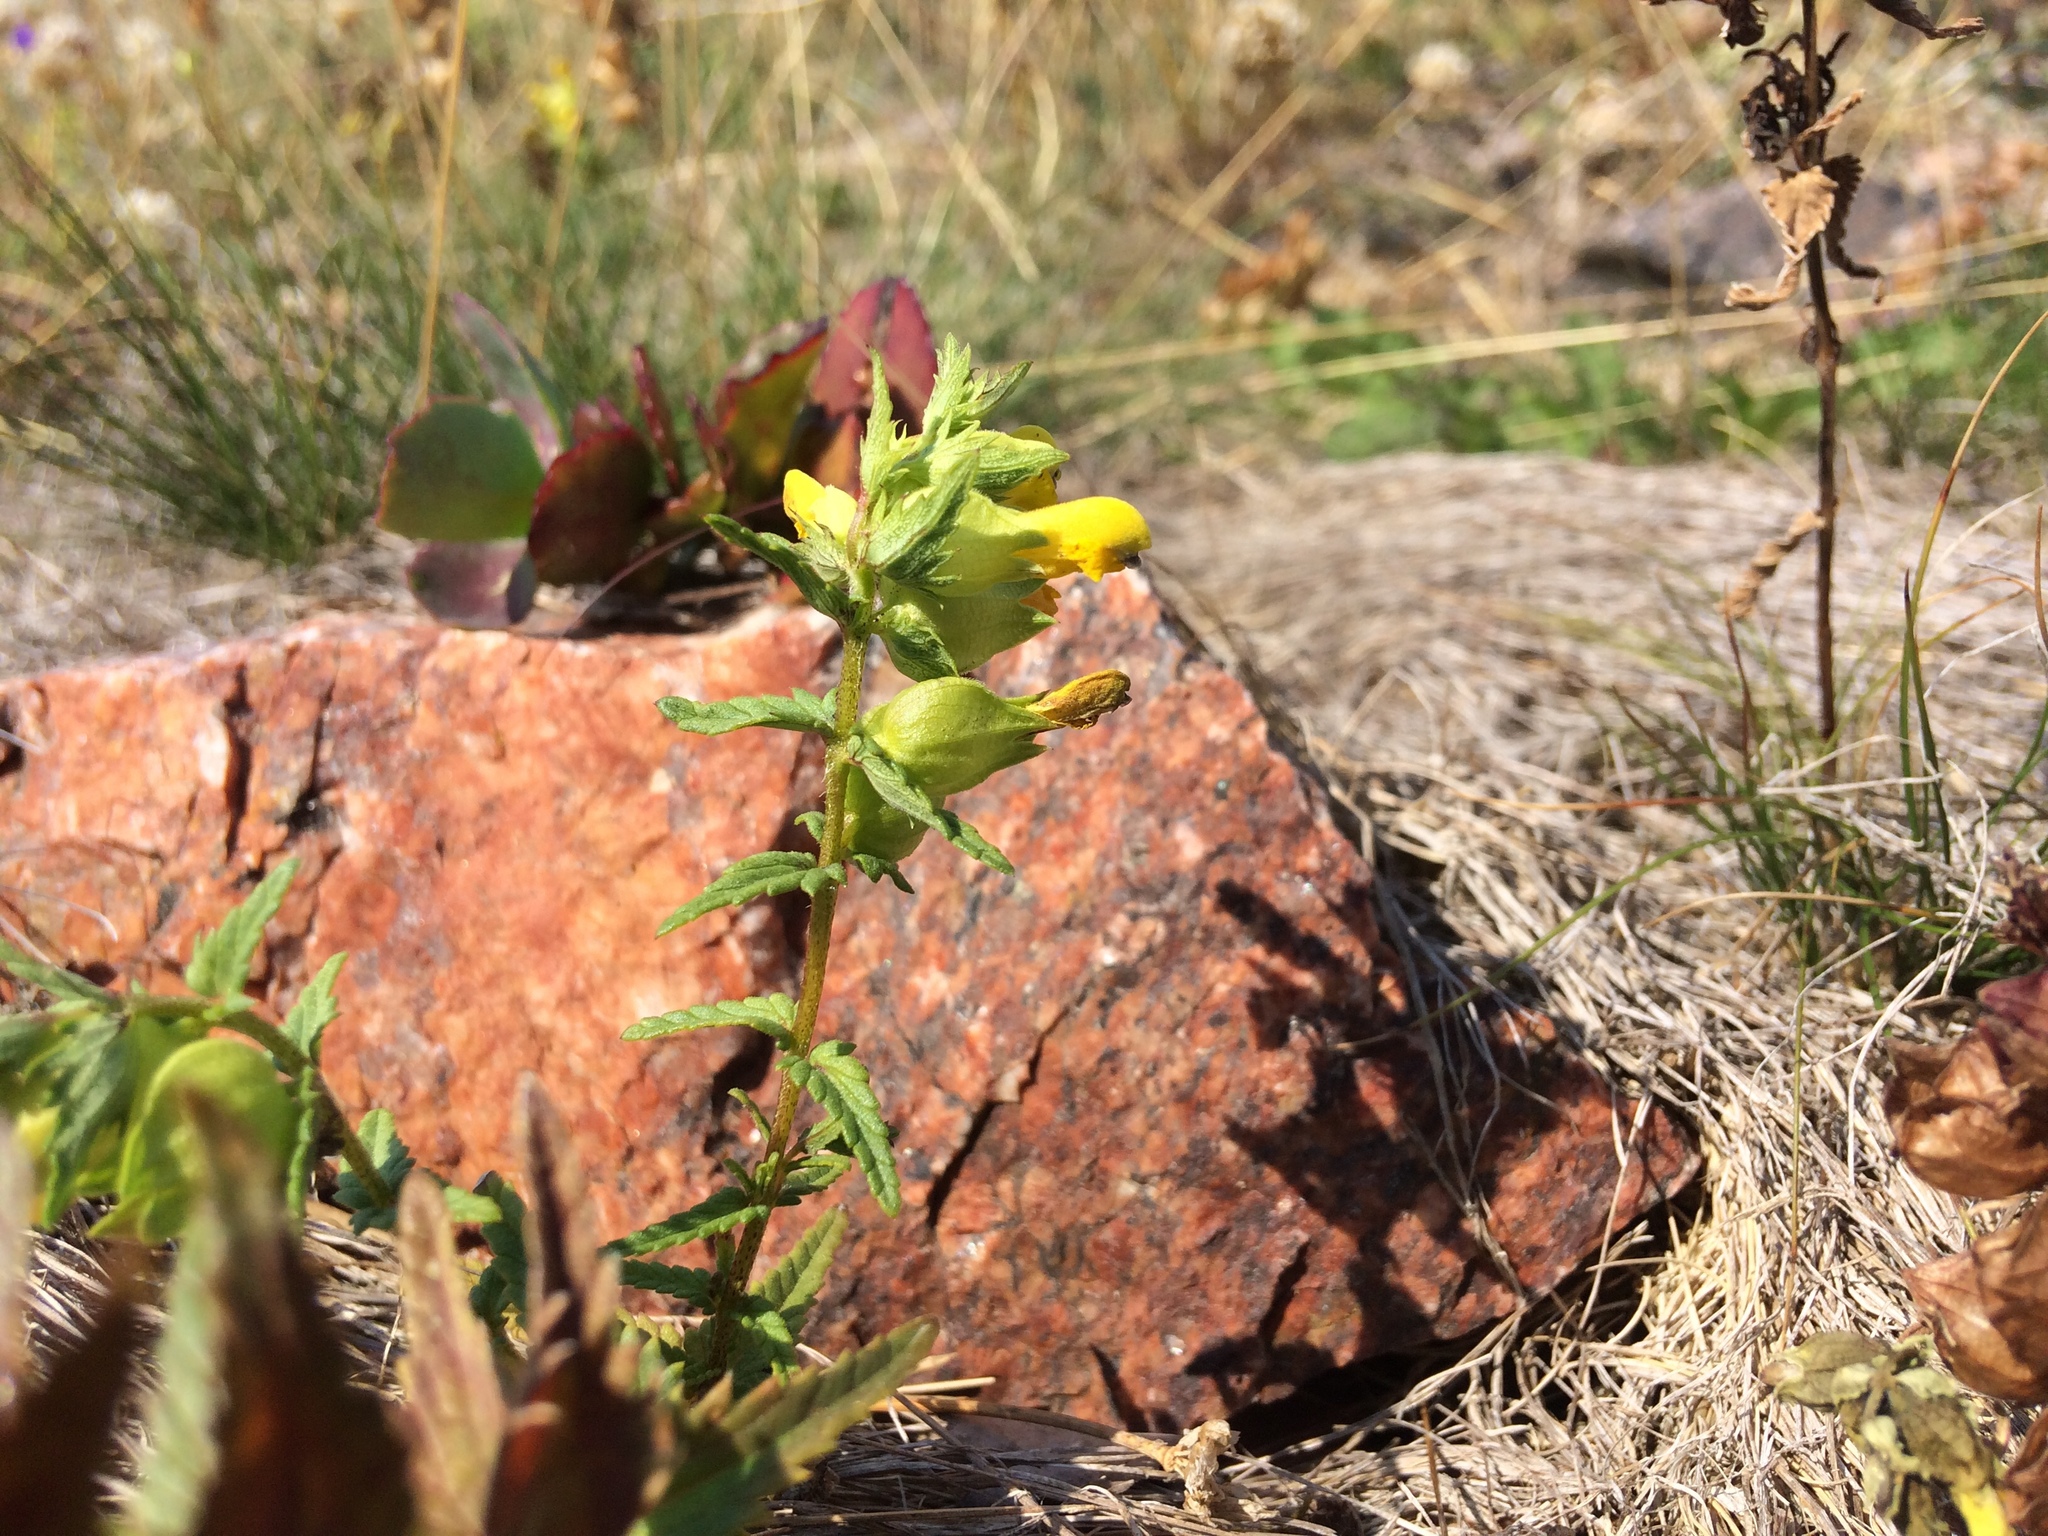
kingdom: Plantae
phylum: Tracheophyta
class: Magnoliopsida
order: Lamiales
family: Orobanchaceae
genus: Rhinanthus
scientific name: Rhinanthus minor
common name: Yellow-rattle
